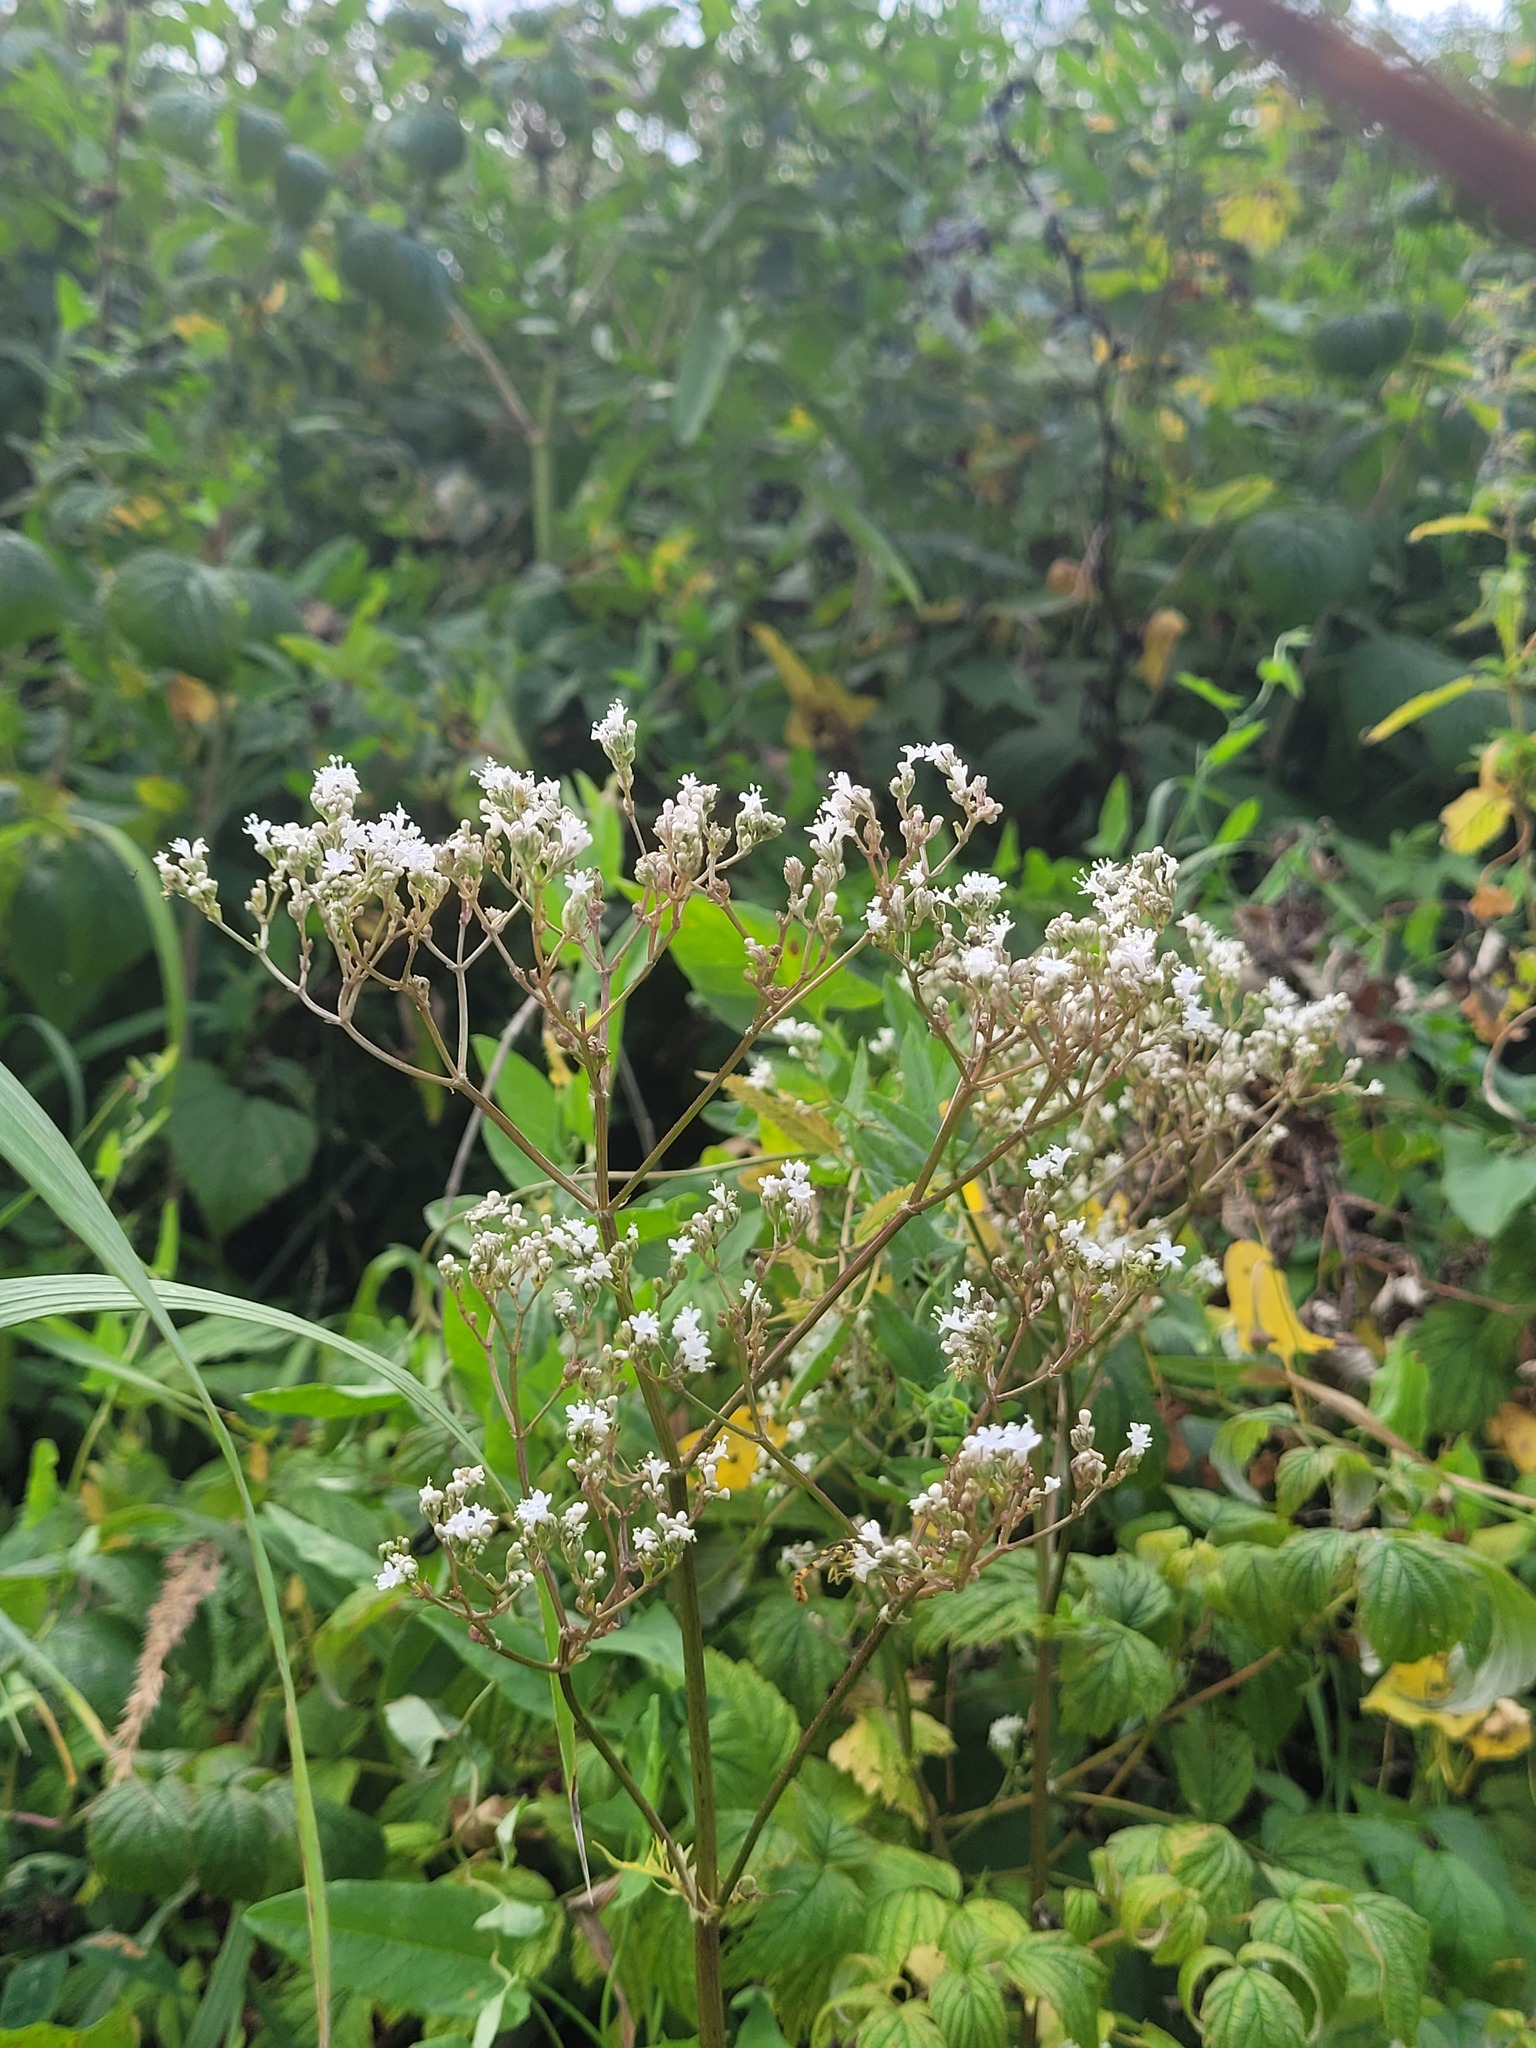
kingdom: Plantae
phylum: Tracheophyta
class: Magnoliopsida
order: Dipsacales
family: Caprifoliaceae
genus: Valeriana
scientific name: Valeriana officinalis
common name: Common valerian
